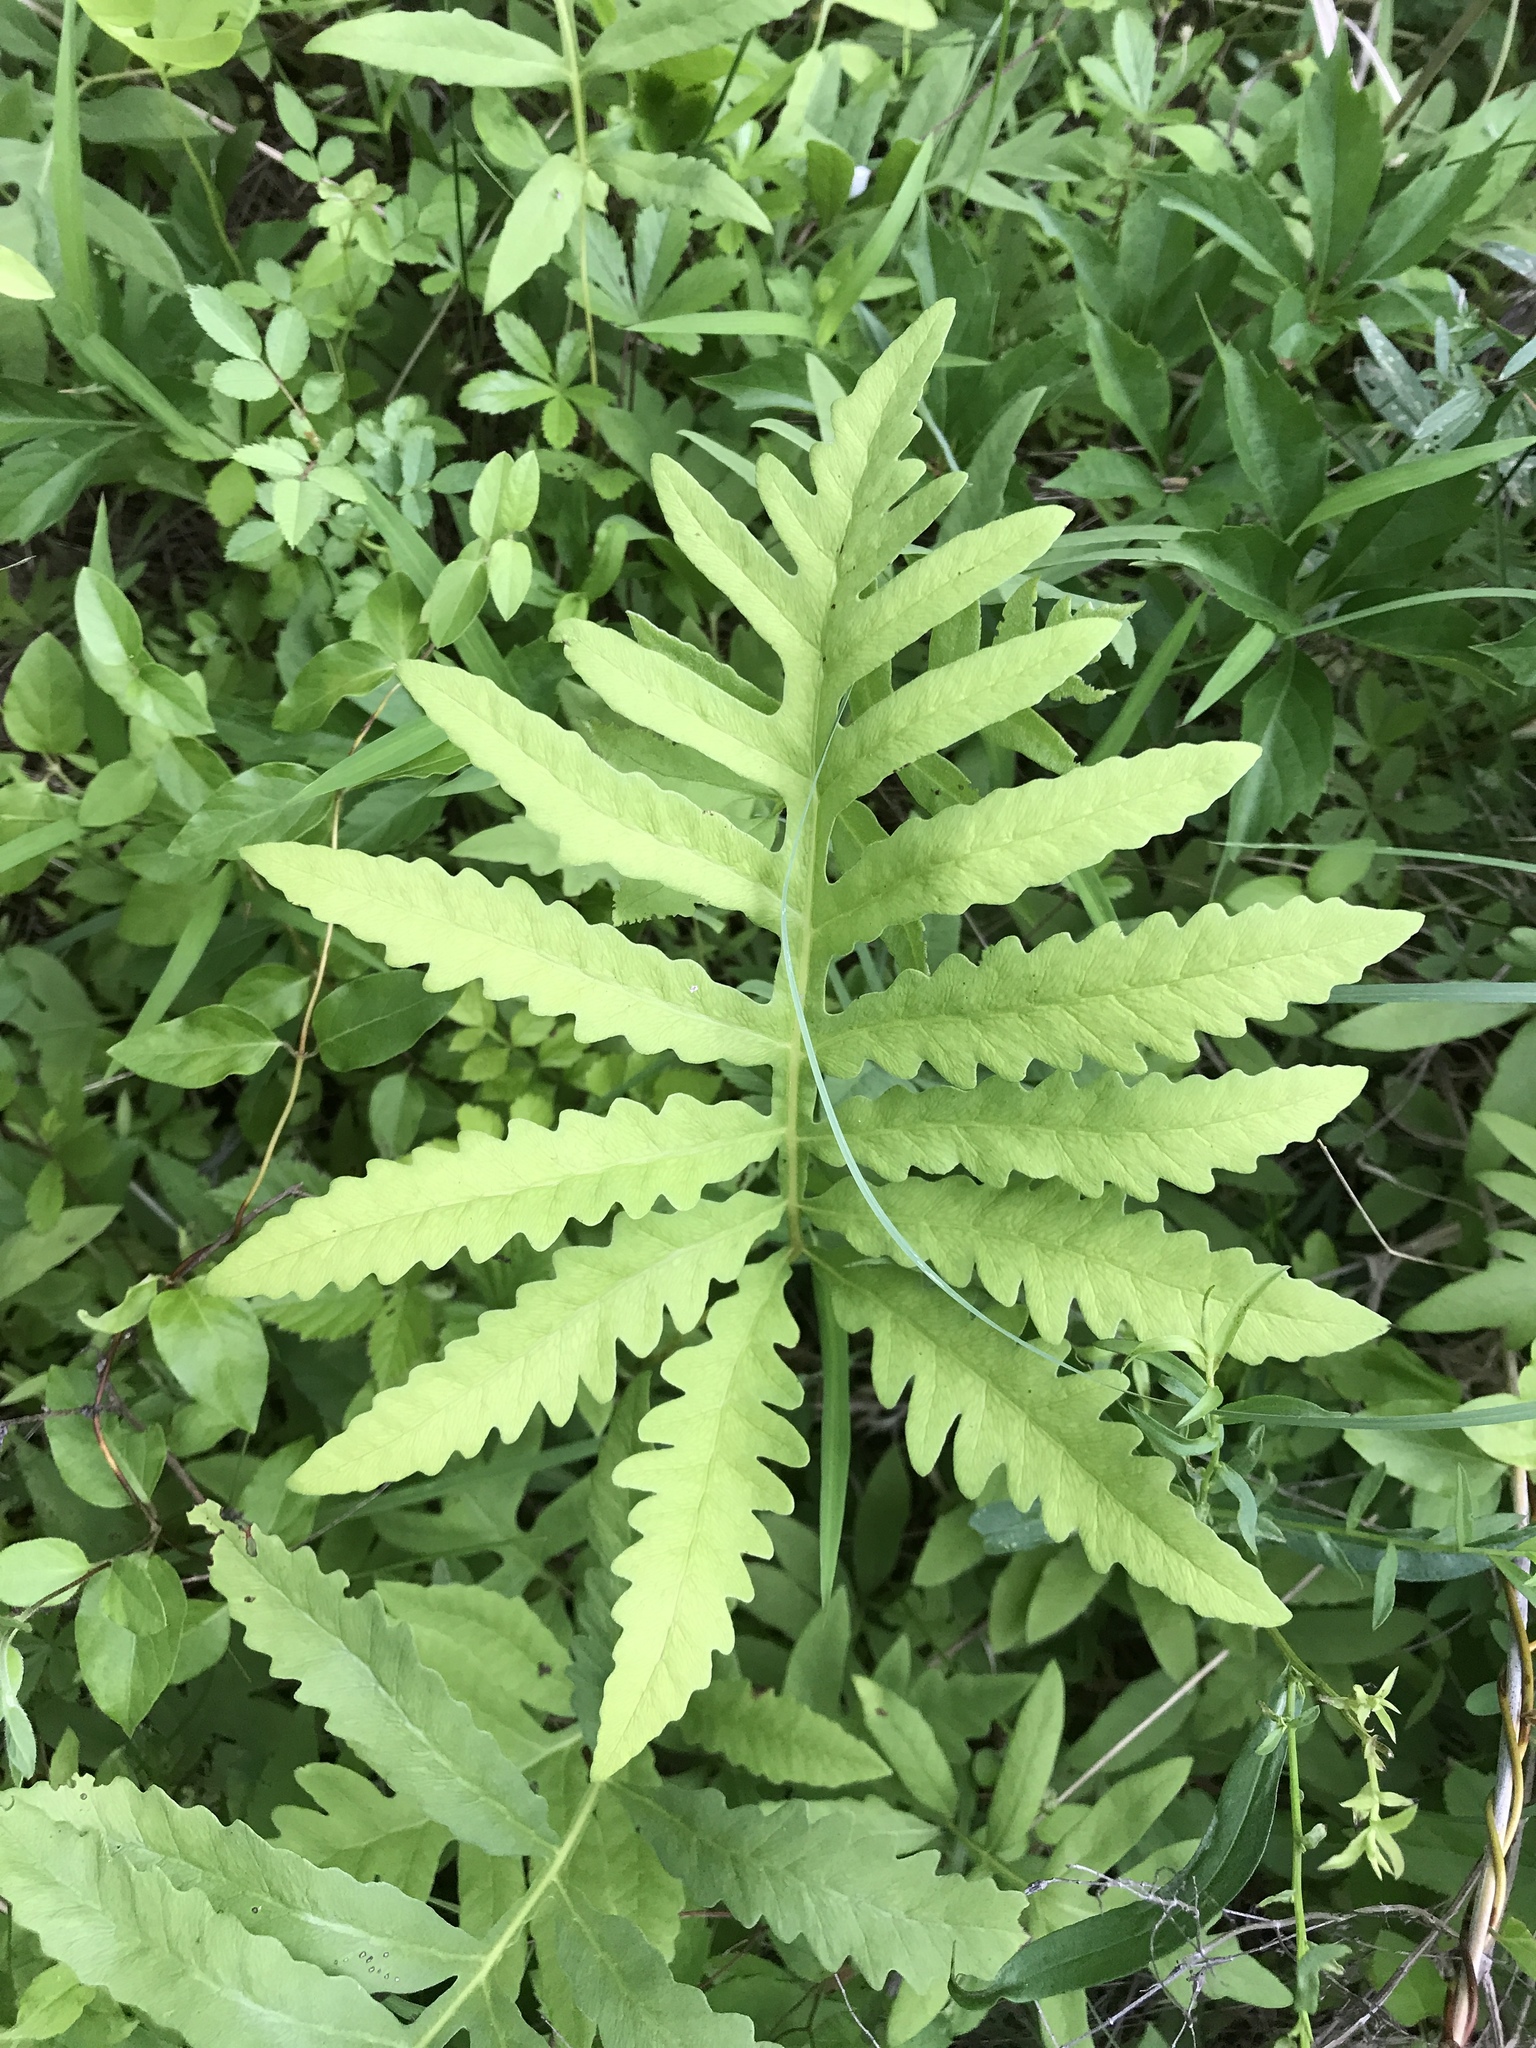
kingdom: Plantae
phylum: Tracheophyta
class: Polypodiopsida
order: Polypodiales
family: Onocleaceae
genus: Onoclea
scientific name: Onoclea sensibilis
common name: Sensitive fern
